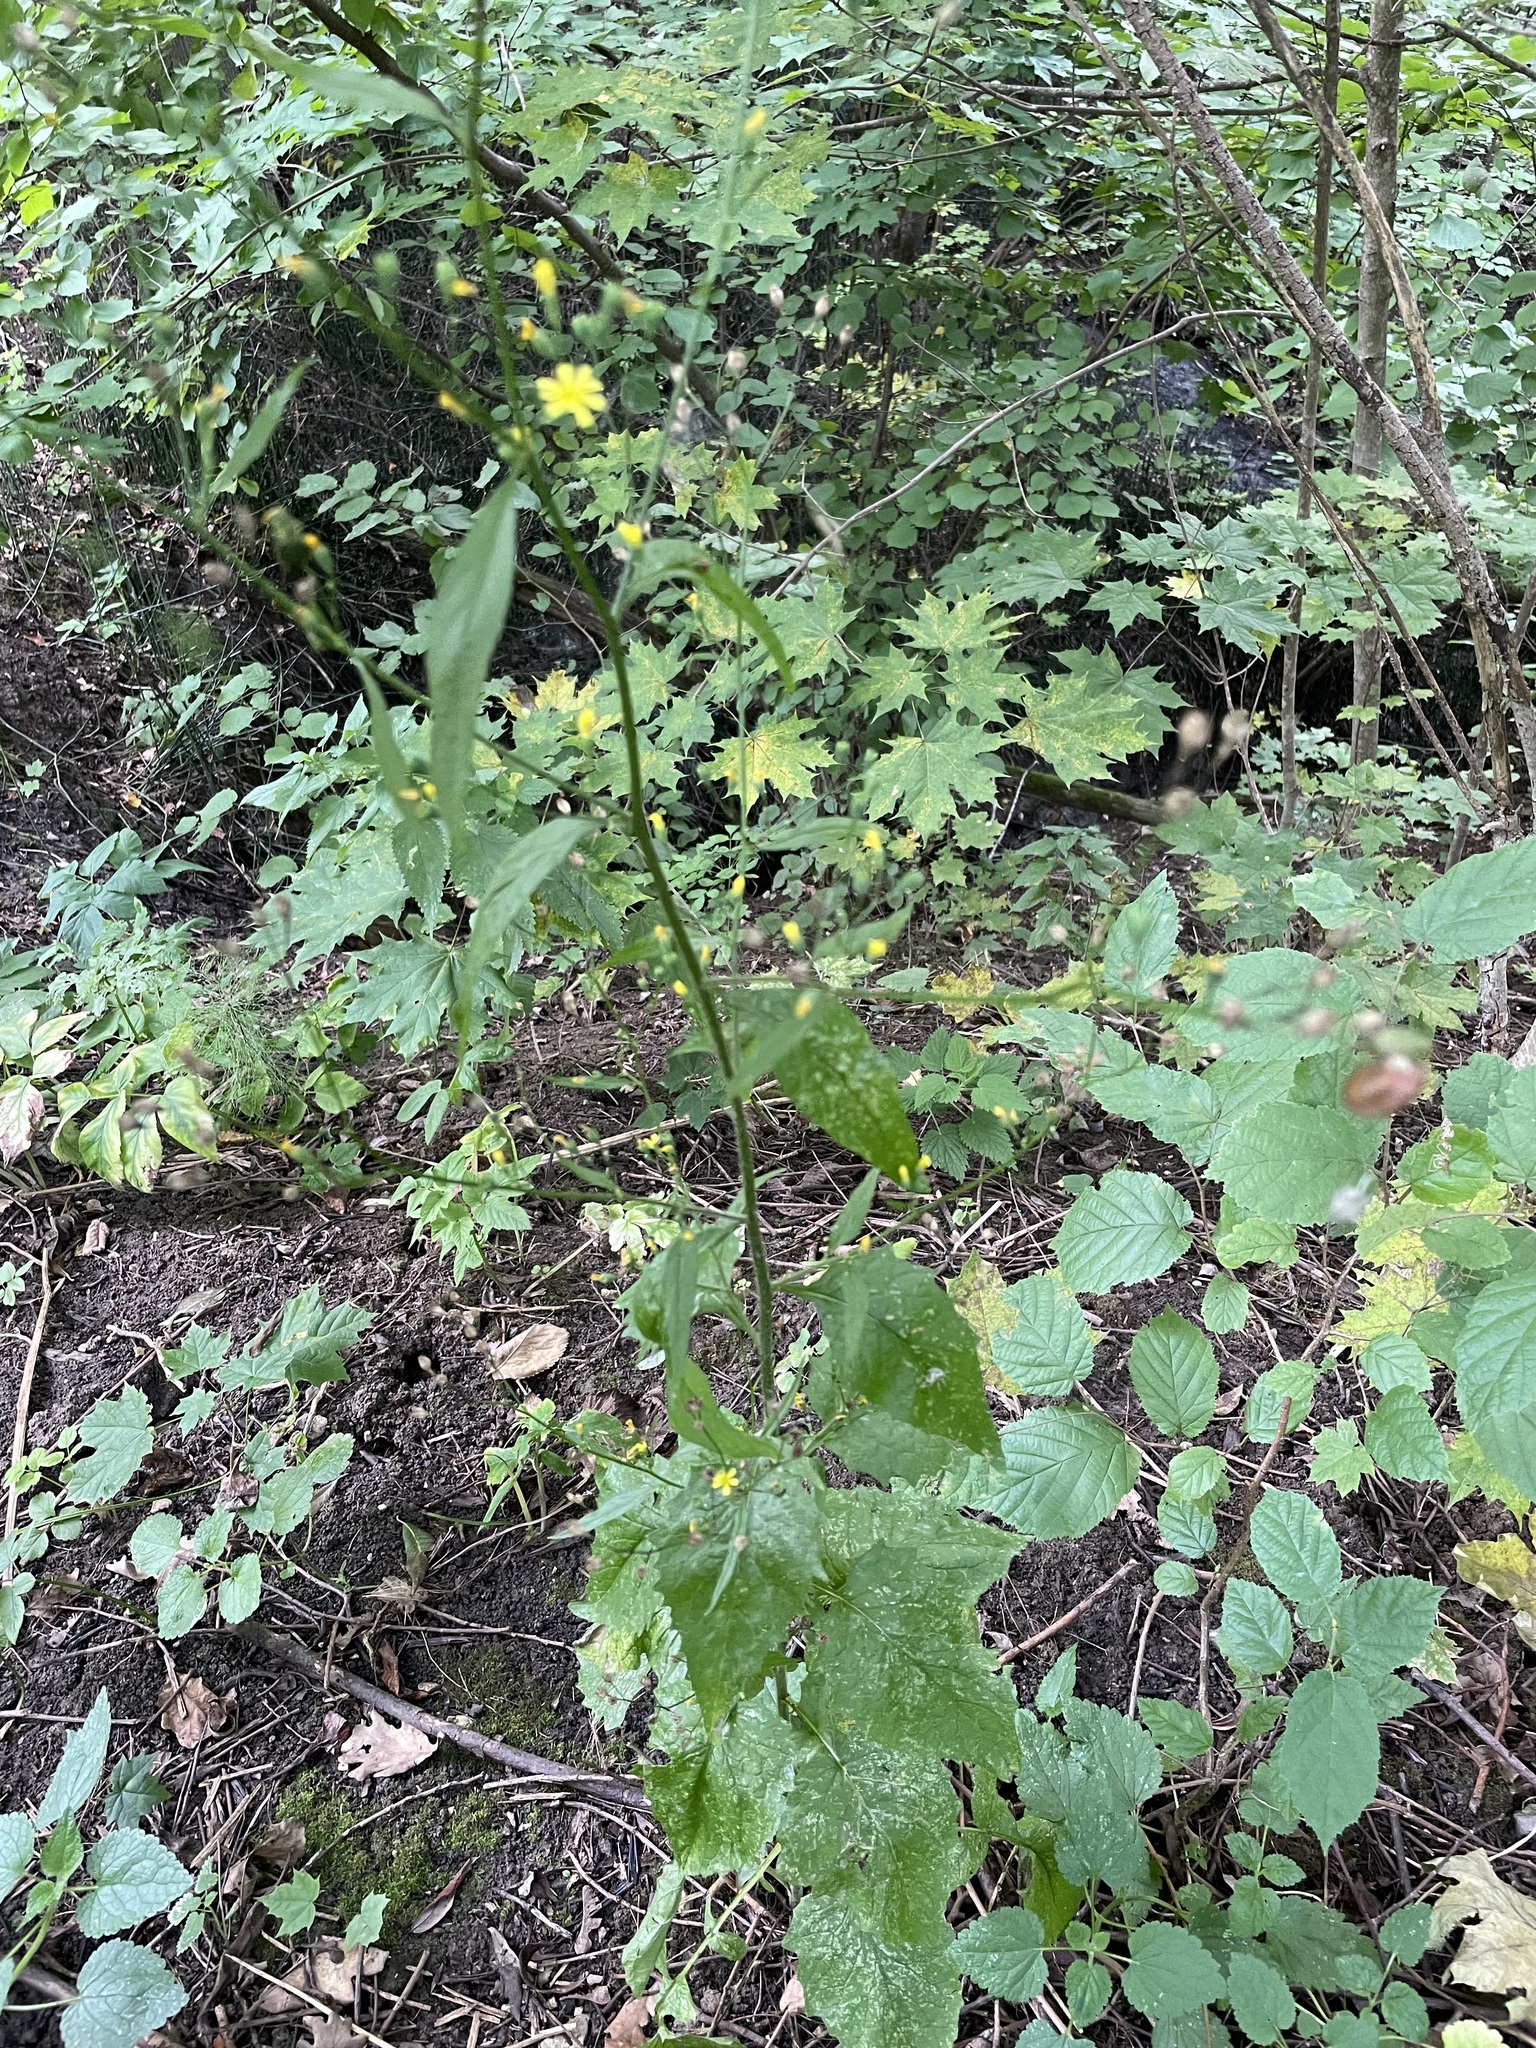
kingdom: Plantae
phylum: Tracheophyta
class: Magnoliopsida
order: Asterales
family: Asteraceae
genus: Lapsana
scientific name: Lapsana communis
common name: Nipplewort
